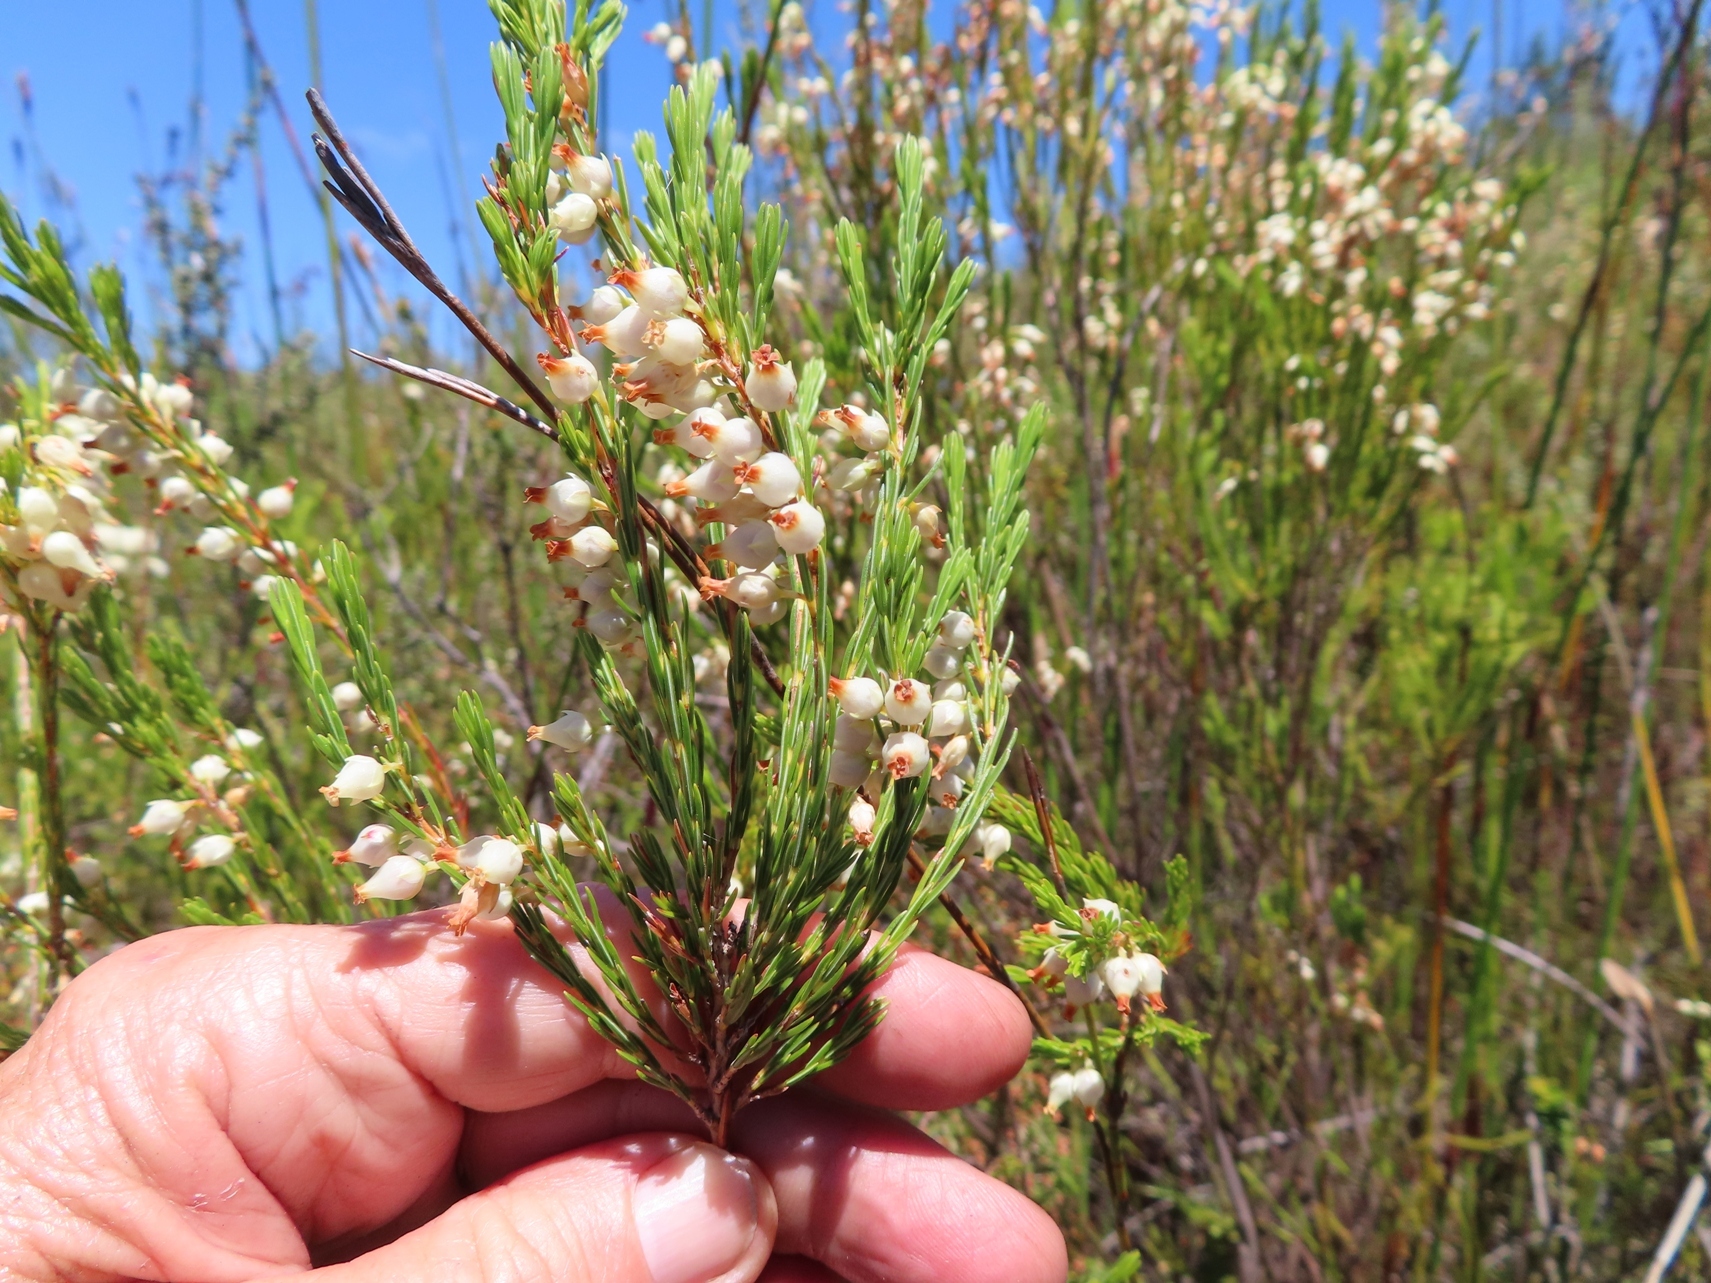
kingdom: Plantae
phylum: Tracheophyta
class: Magnoliopsida
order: Ericales
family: Ericaceae
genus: Erica
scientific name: Erica albens
